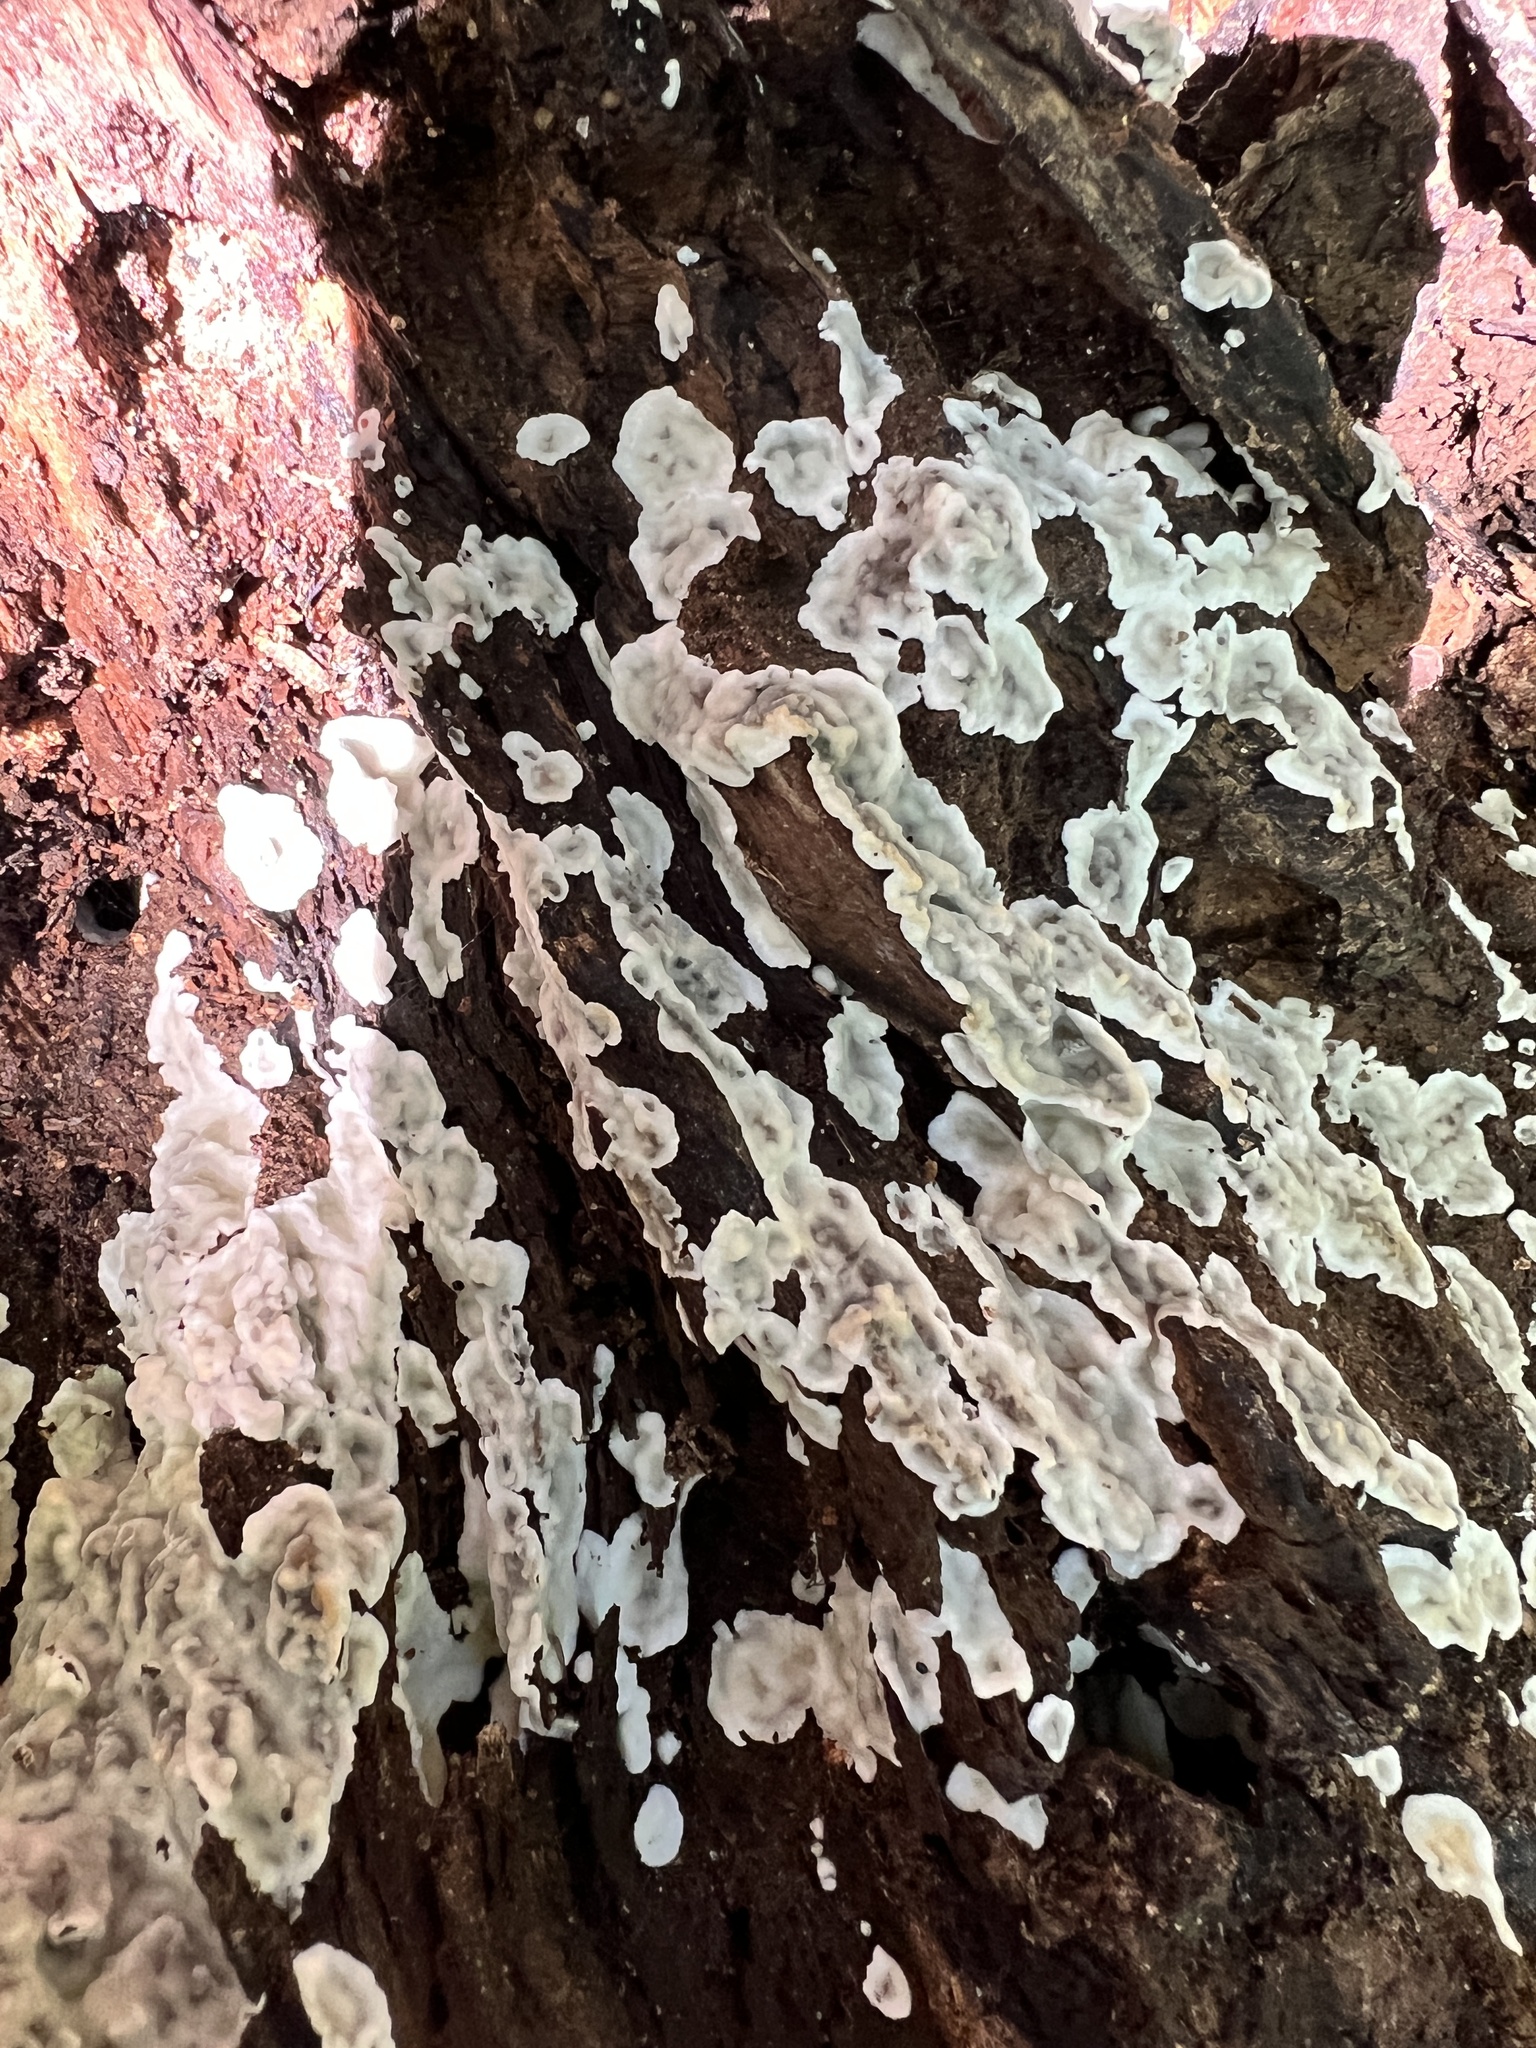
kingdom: Fungi
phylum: Ascomycota
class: Sordariomycetes
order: Xylariales
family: Xylariaceae
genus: Kretzschmaria
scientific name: Kretzschmaria deusta
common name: Brittle cinder
